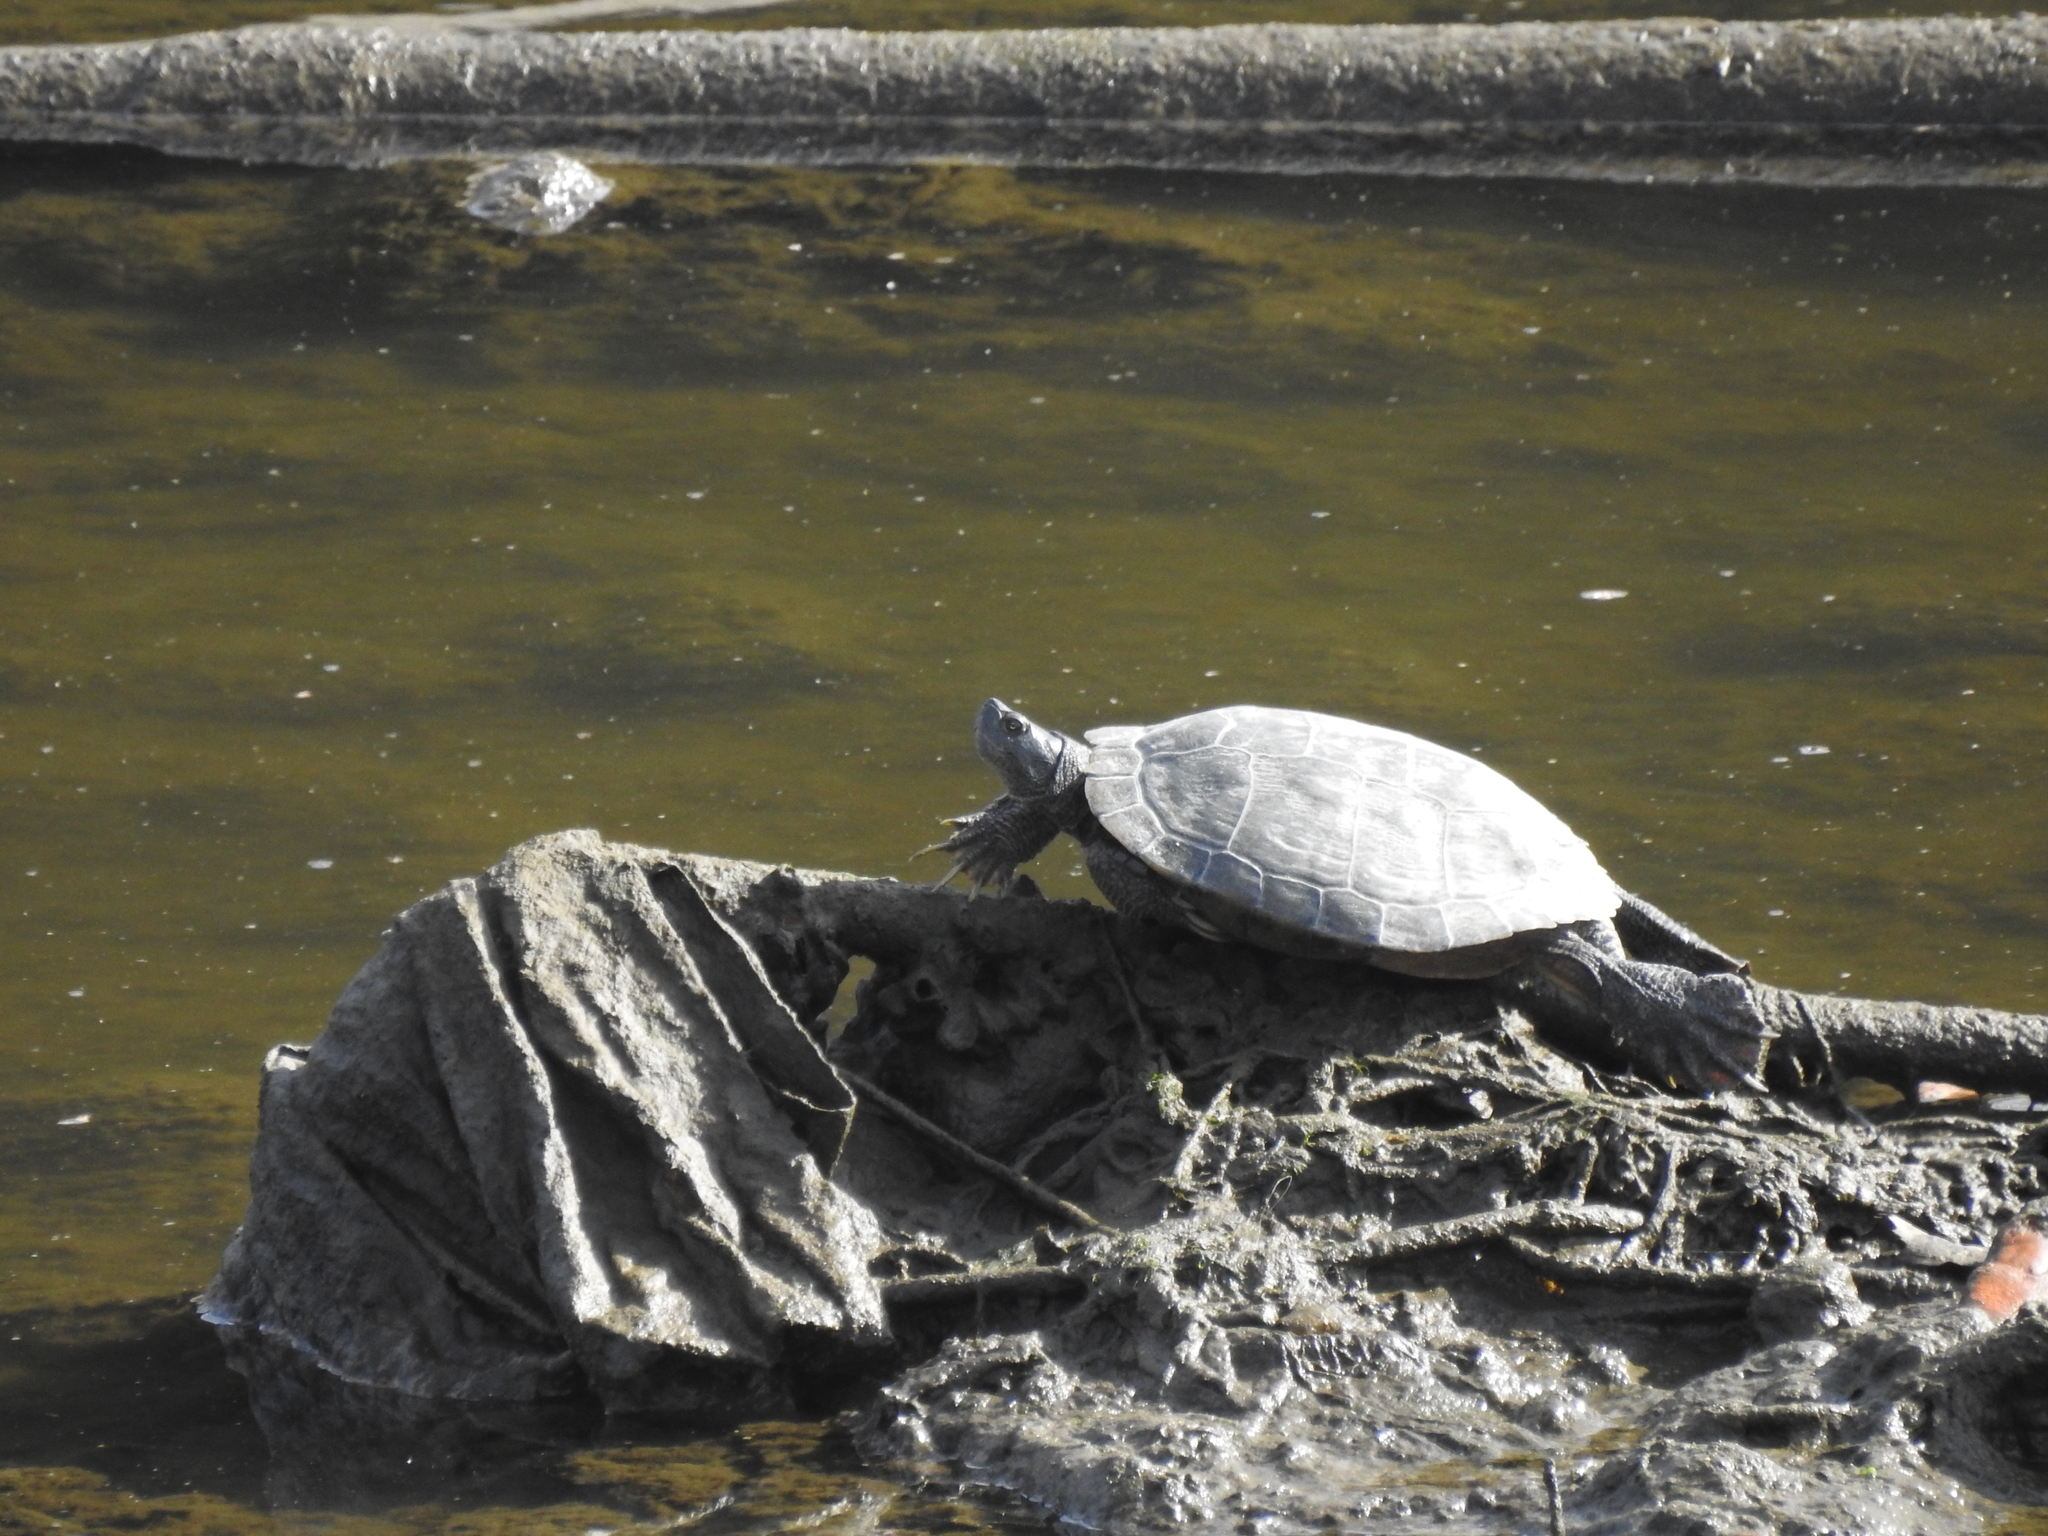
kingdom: Animalia
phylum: Chordata
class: Testudines
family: Emydidae
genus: Trachemys
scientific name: Trachemys scripta
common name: Slider
